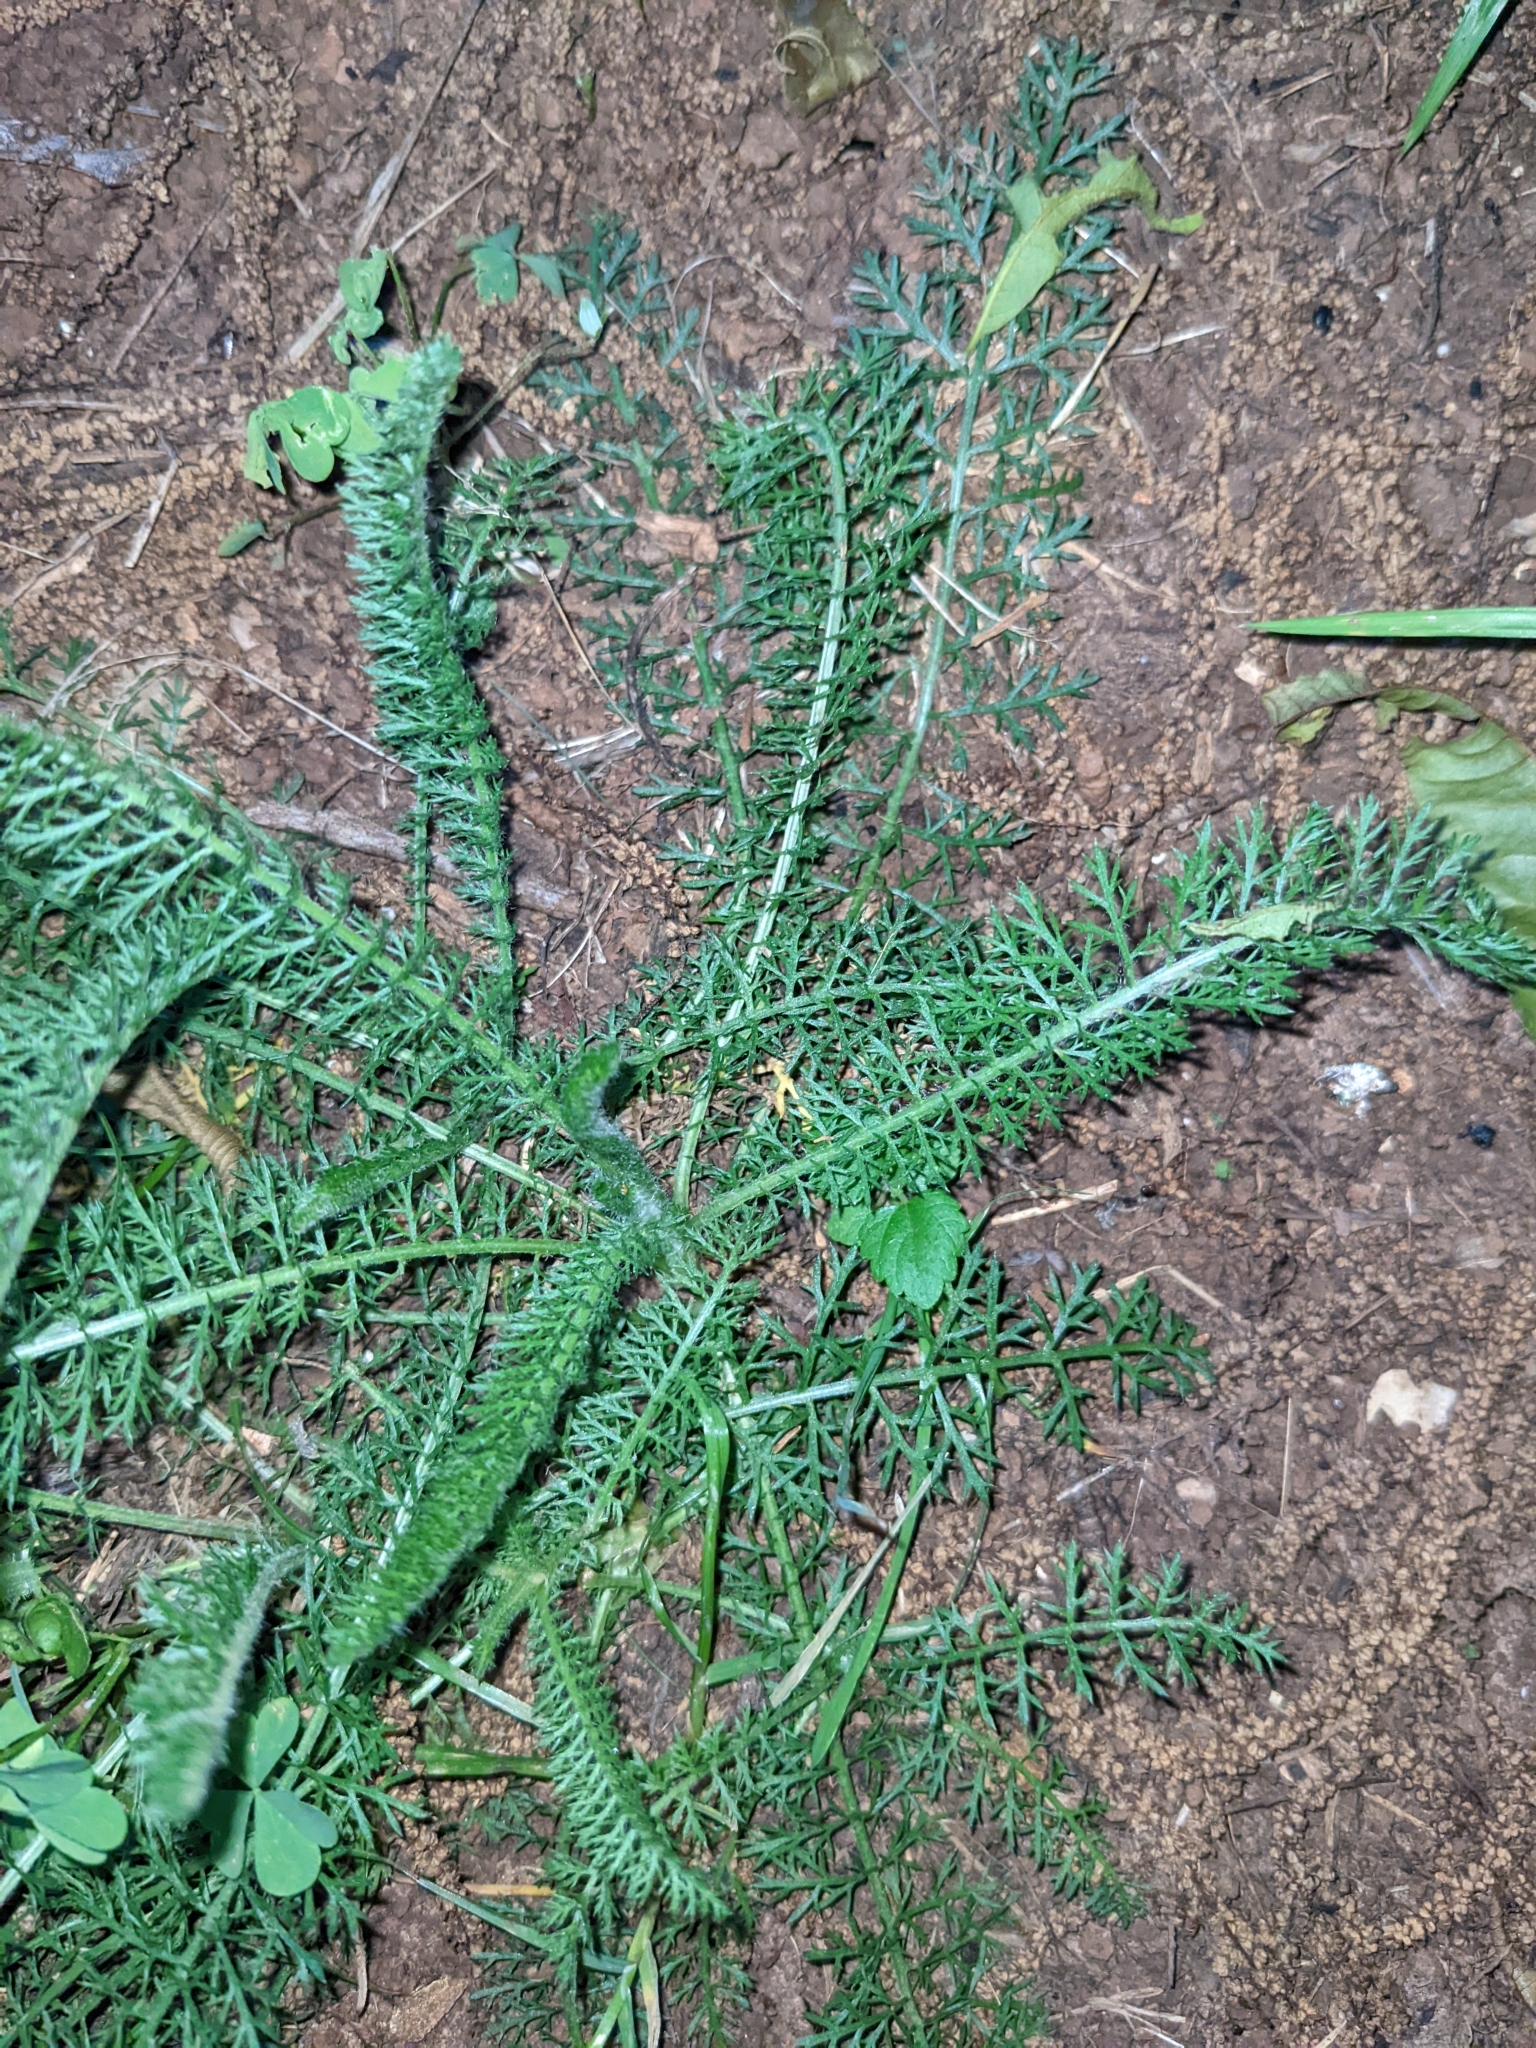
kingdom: Plantae
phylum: Tracheophyta
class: Magnoliopsida
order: Asterales
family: Asteraceae
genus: Achillea
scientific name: Achillea millefolium
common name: Yarrow
